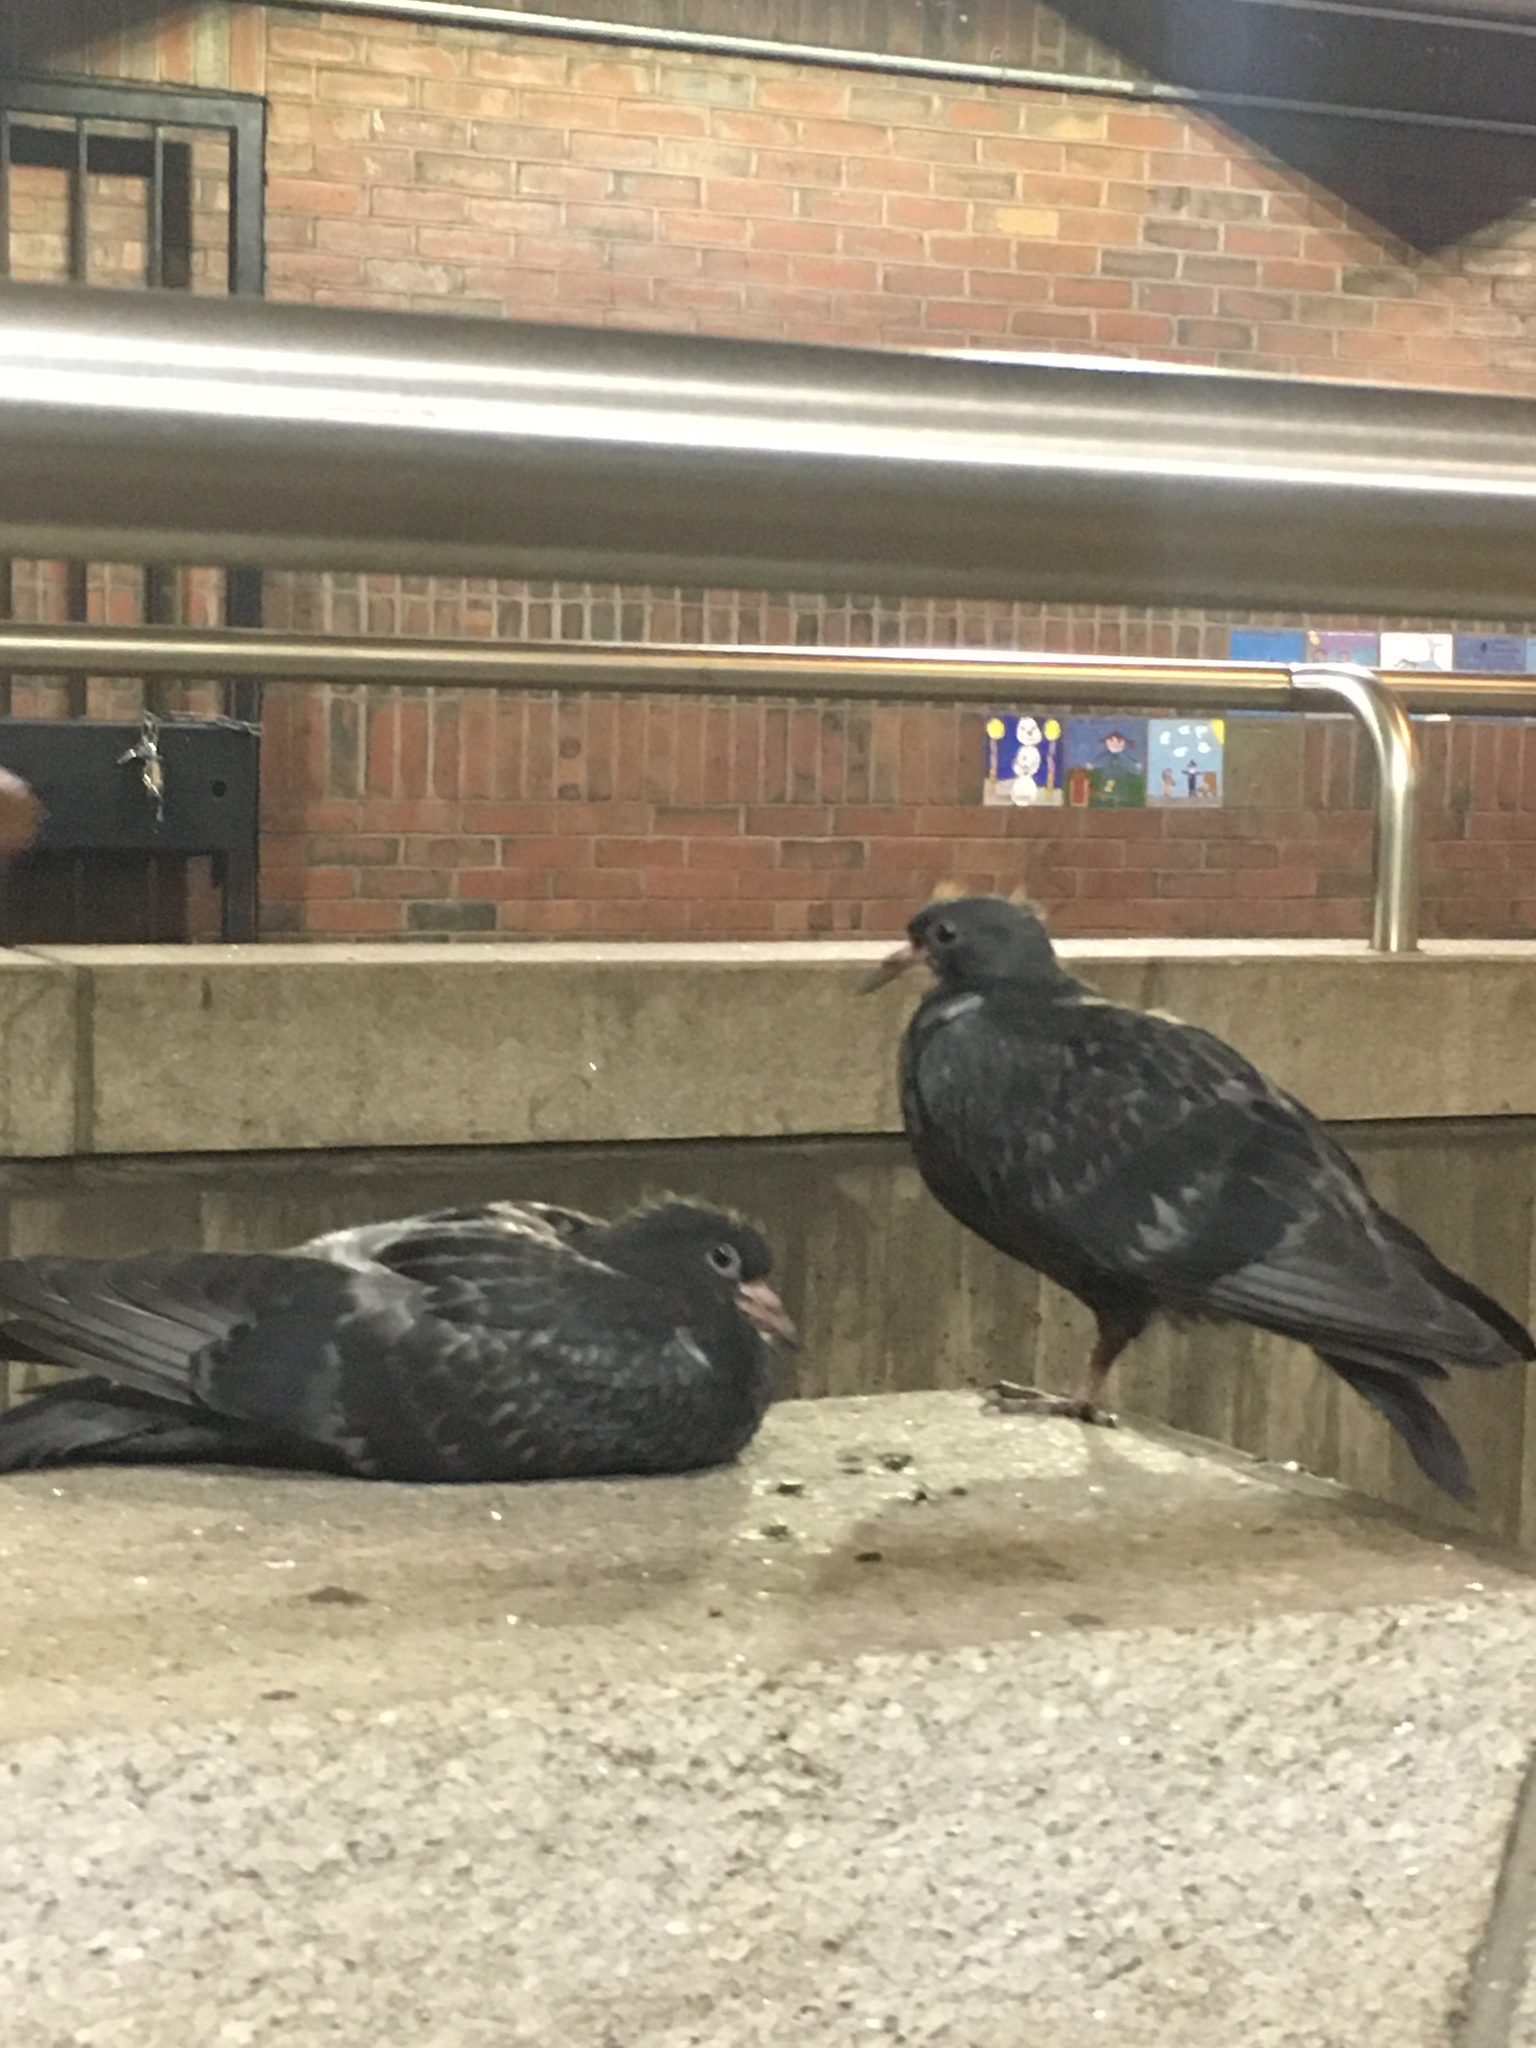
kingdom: Animalia
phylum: Chordata
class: Aves
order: Columbiformes
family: Columbidae
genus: Columba
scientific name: Columba livia
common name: Rock pigeon
